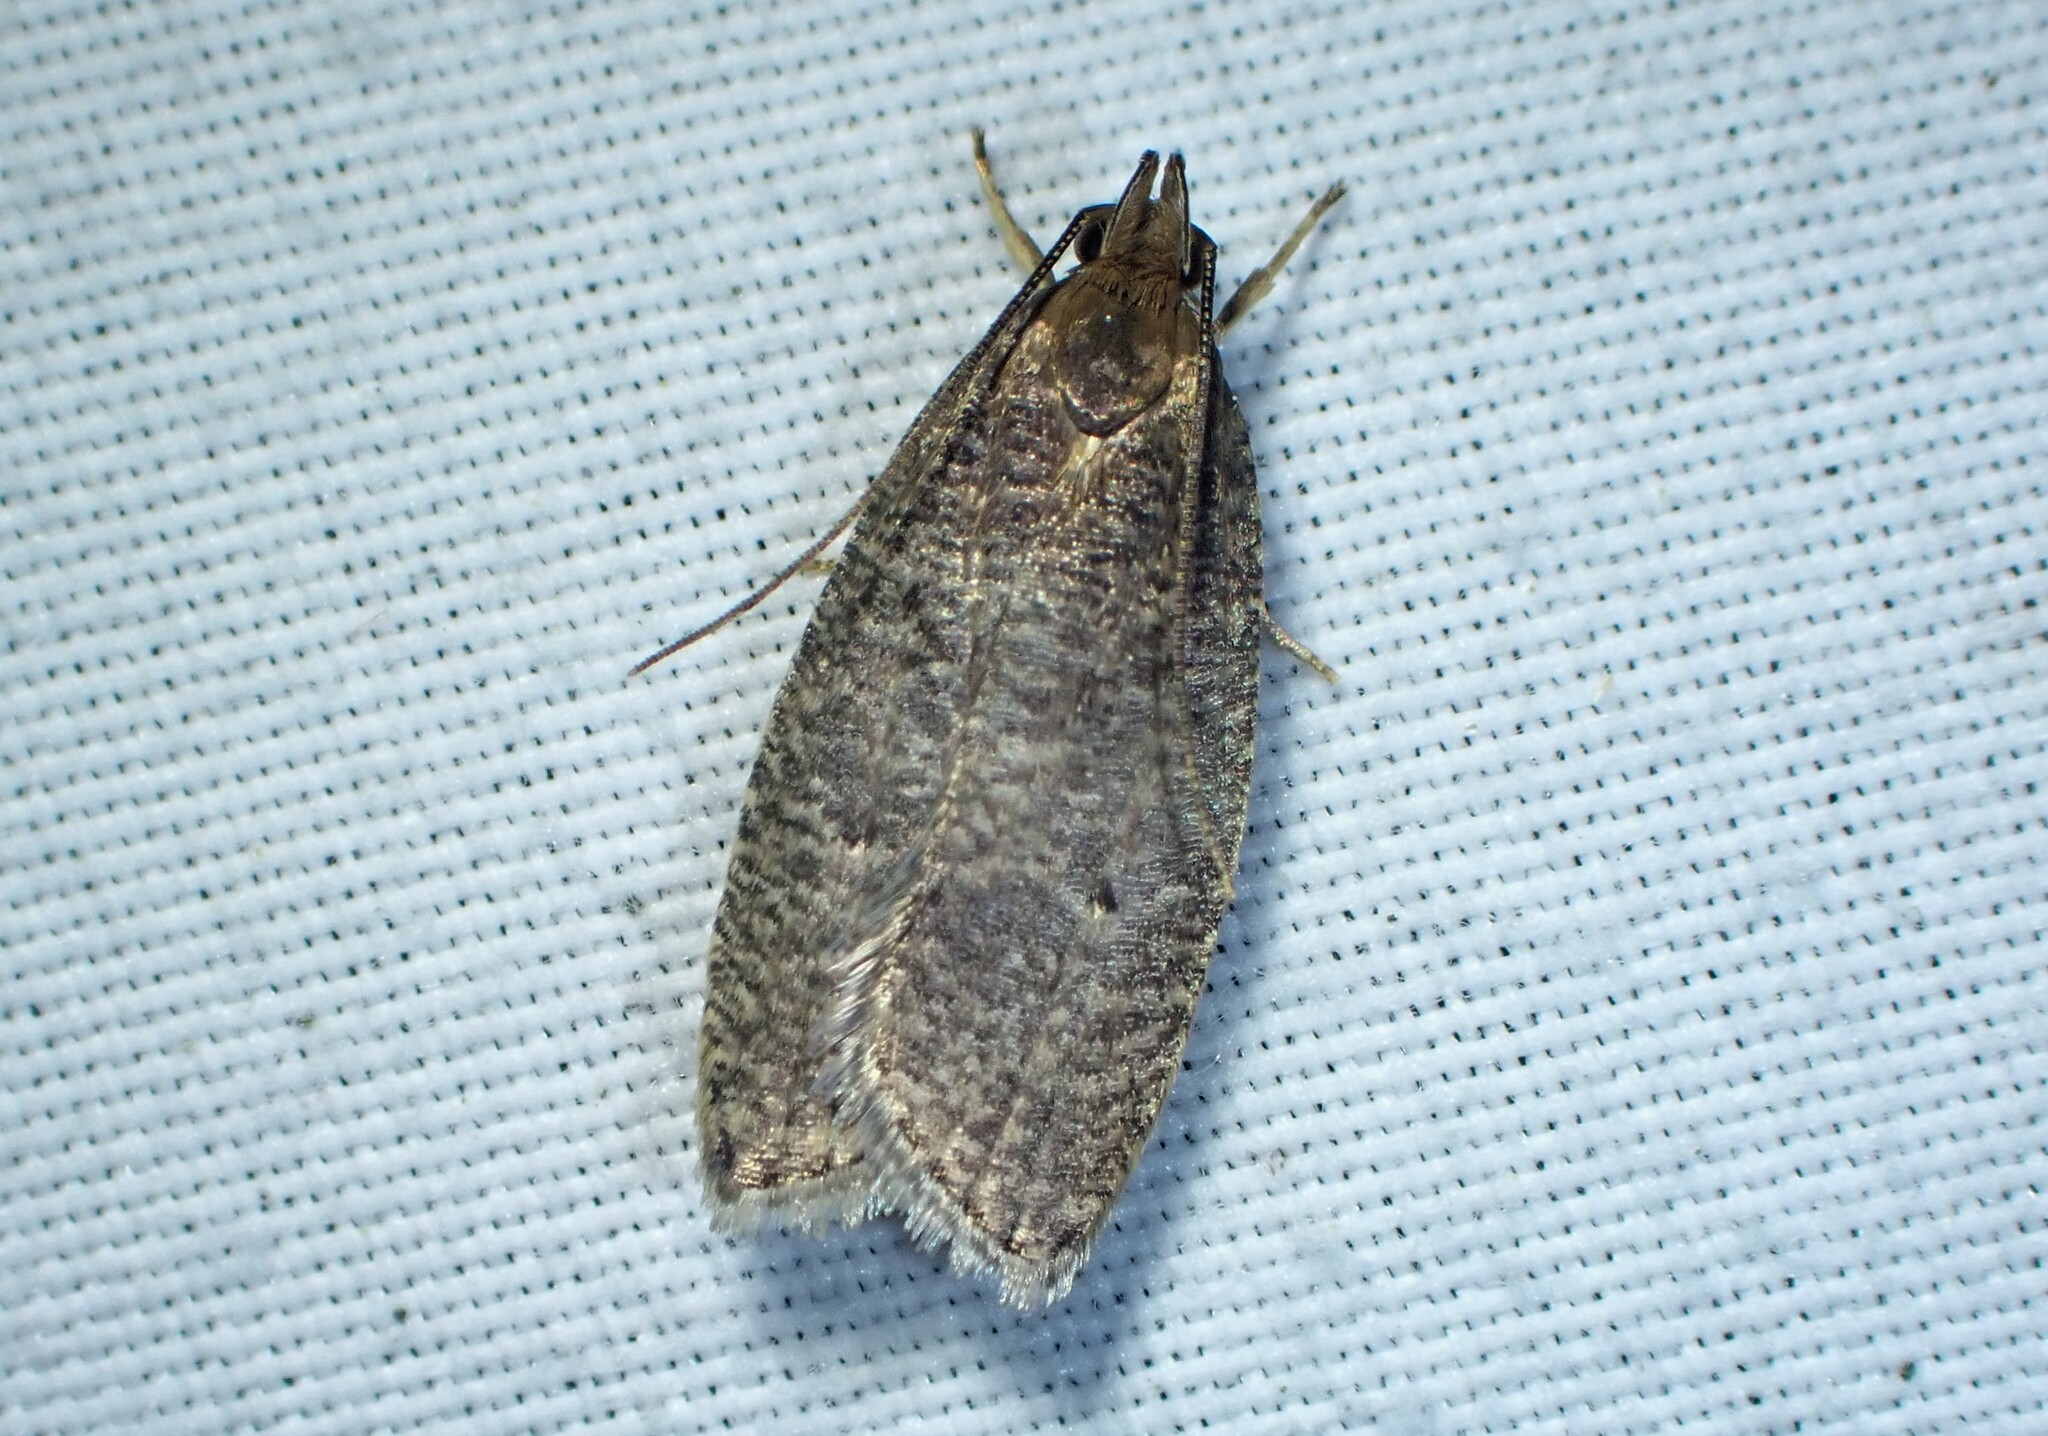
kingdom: Animalia
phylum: Arthropoda
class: Insecta
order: Lepidoptera
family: Depressariidae
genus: Psilocorsis
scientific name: Psilocorsis reflexella
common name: Dotted leaftier moth
